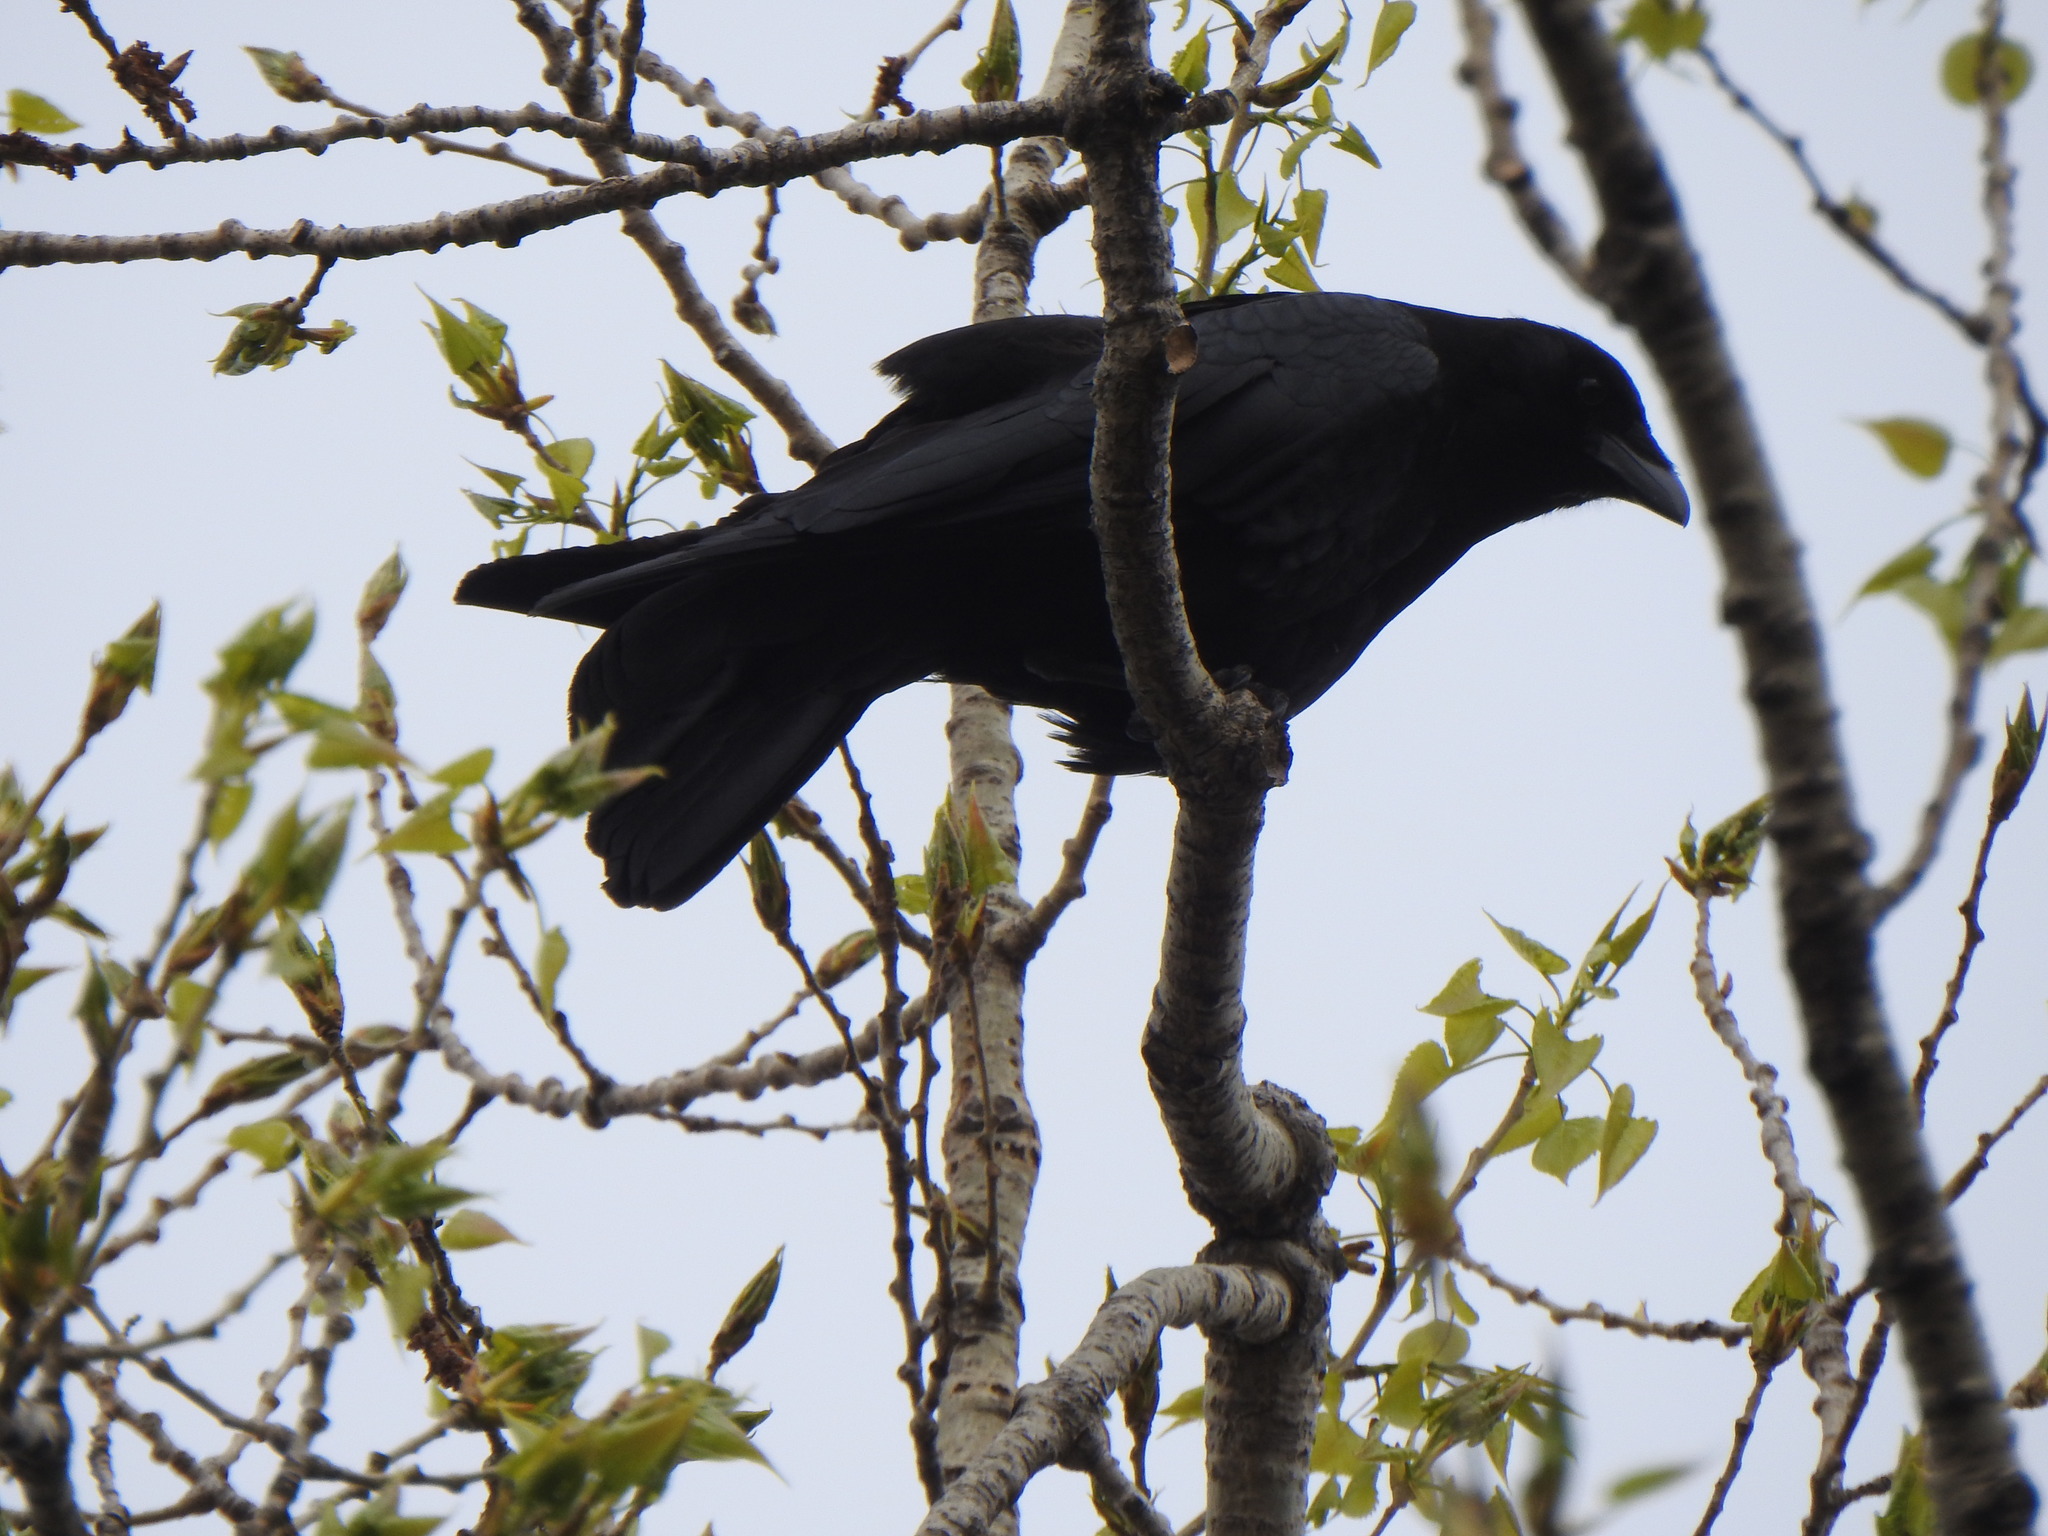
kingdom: Animalia
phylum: Chordata
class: Aves
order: Passeriformes
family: Corvidae
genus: Corvus
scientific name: Corvus brachyrhynchos
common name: American crow
